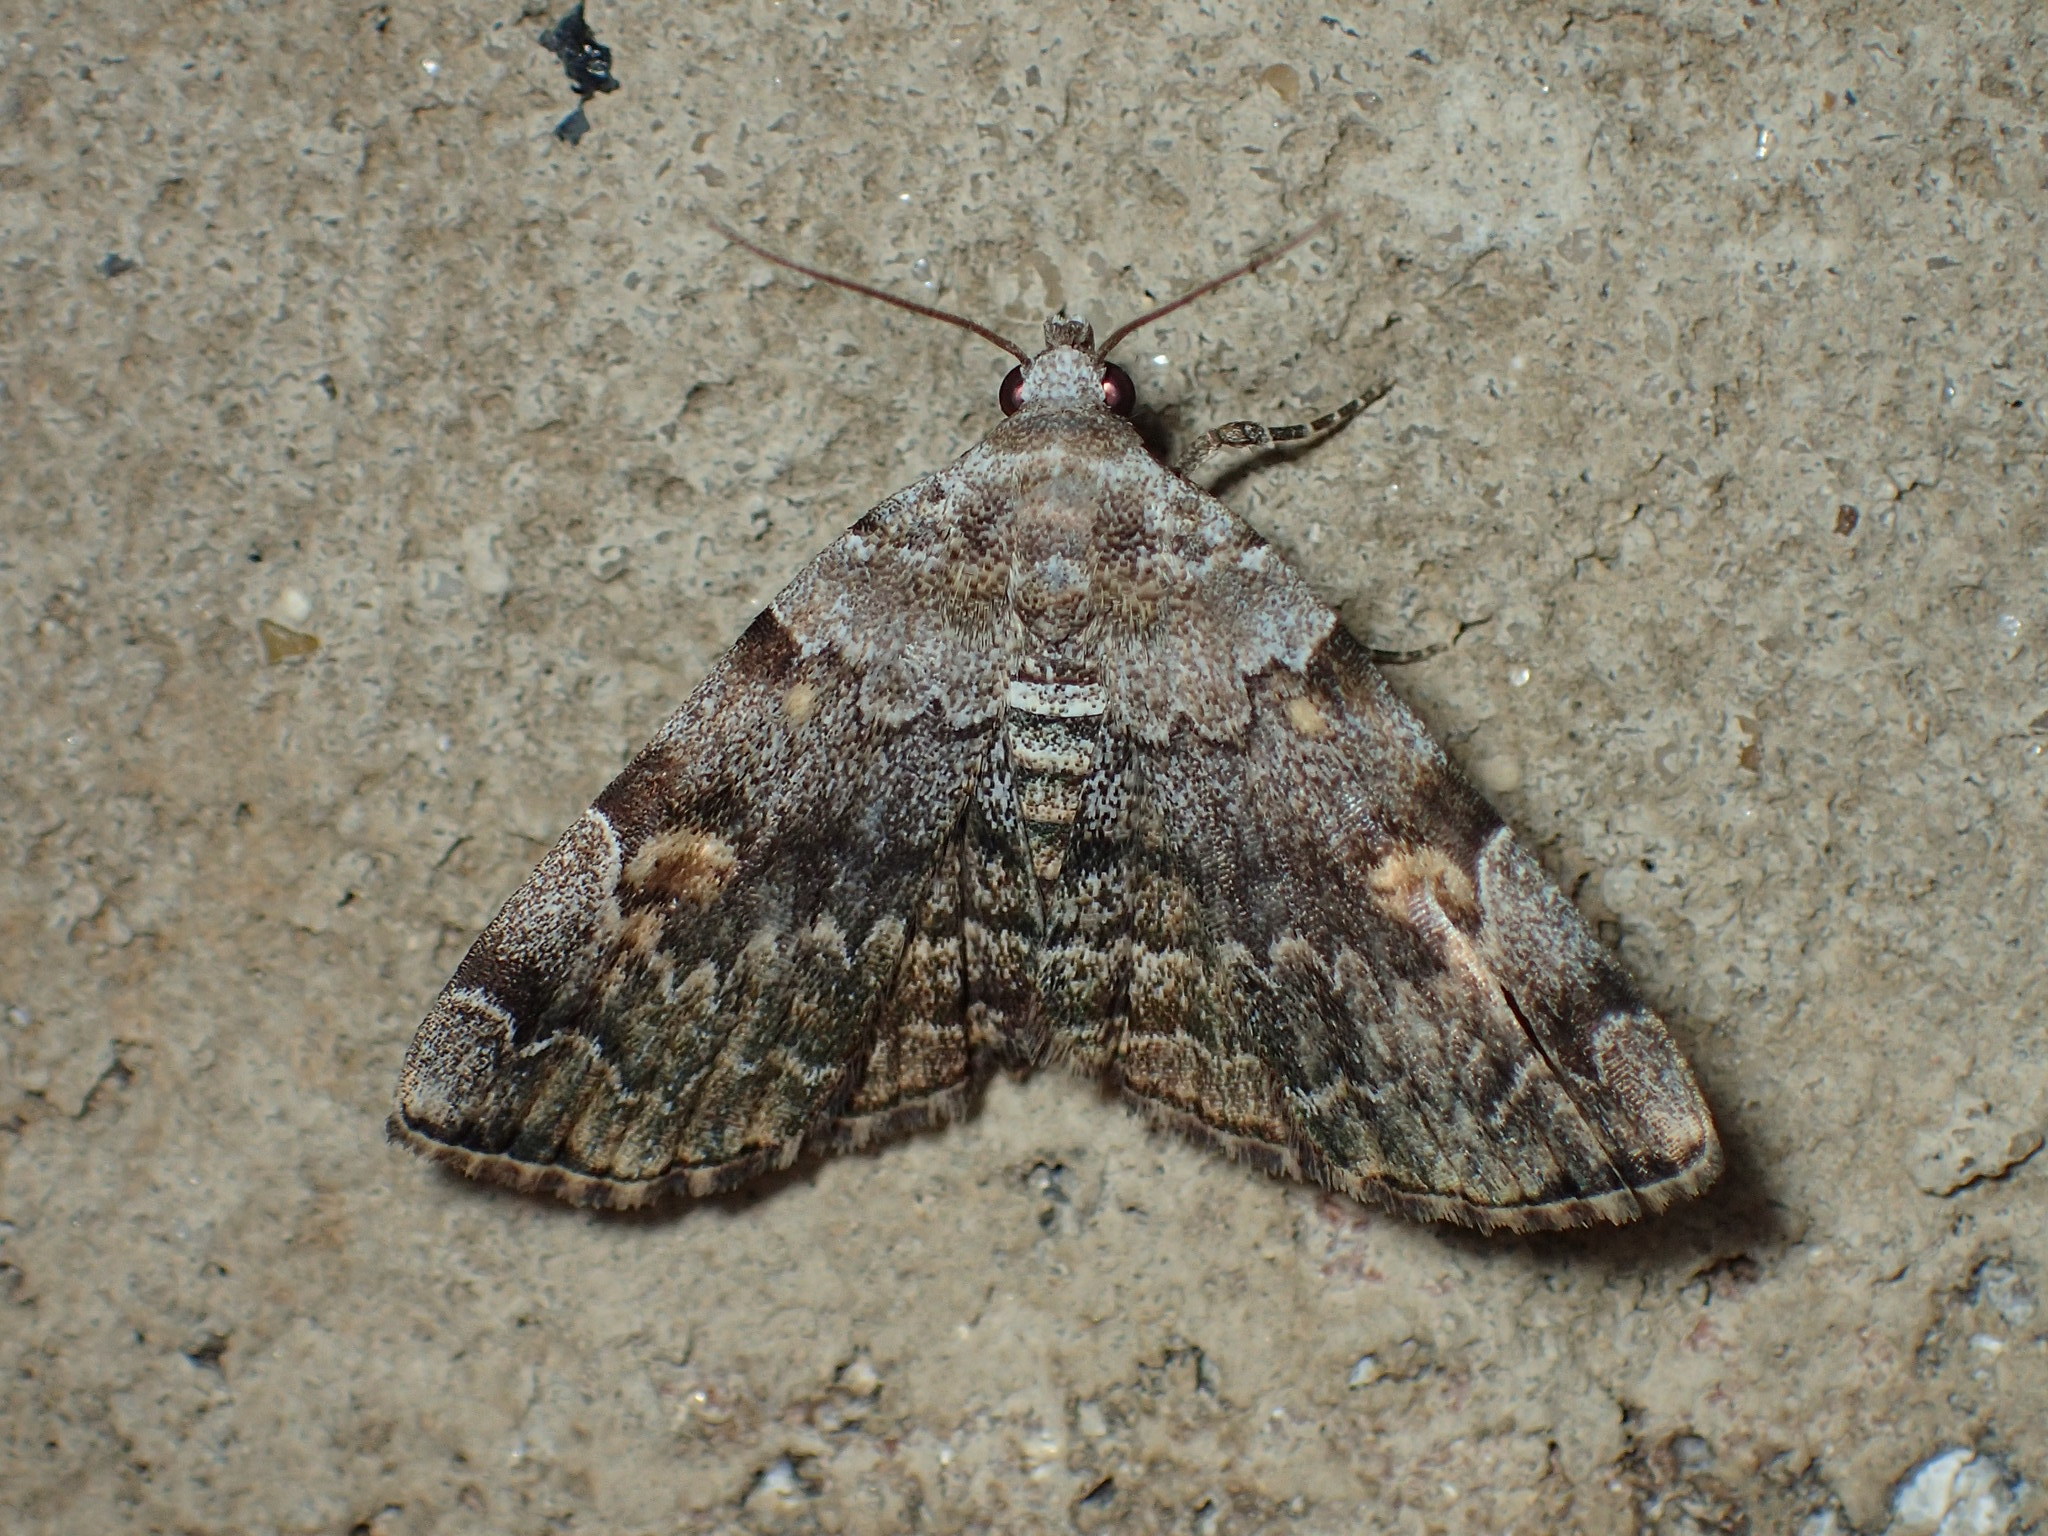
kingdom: Animalia
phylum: Arthropoda
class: Insecta
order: Lepidoptera
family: Erebidae
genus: Idia
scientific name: Idia americalis
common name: American idia moth
